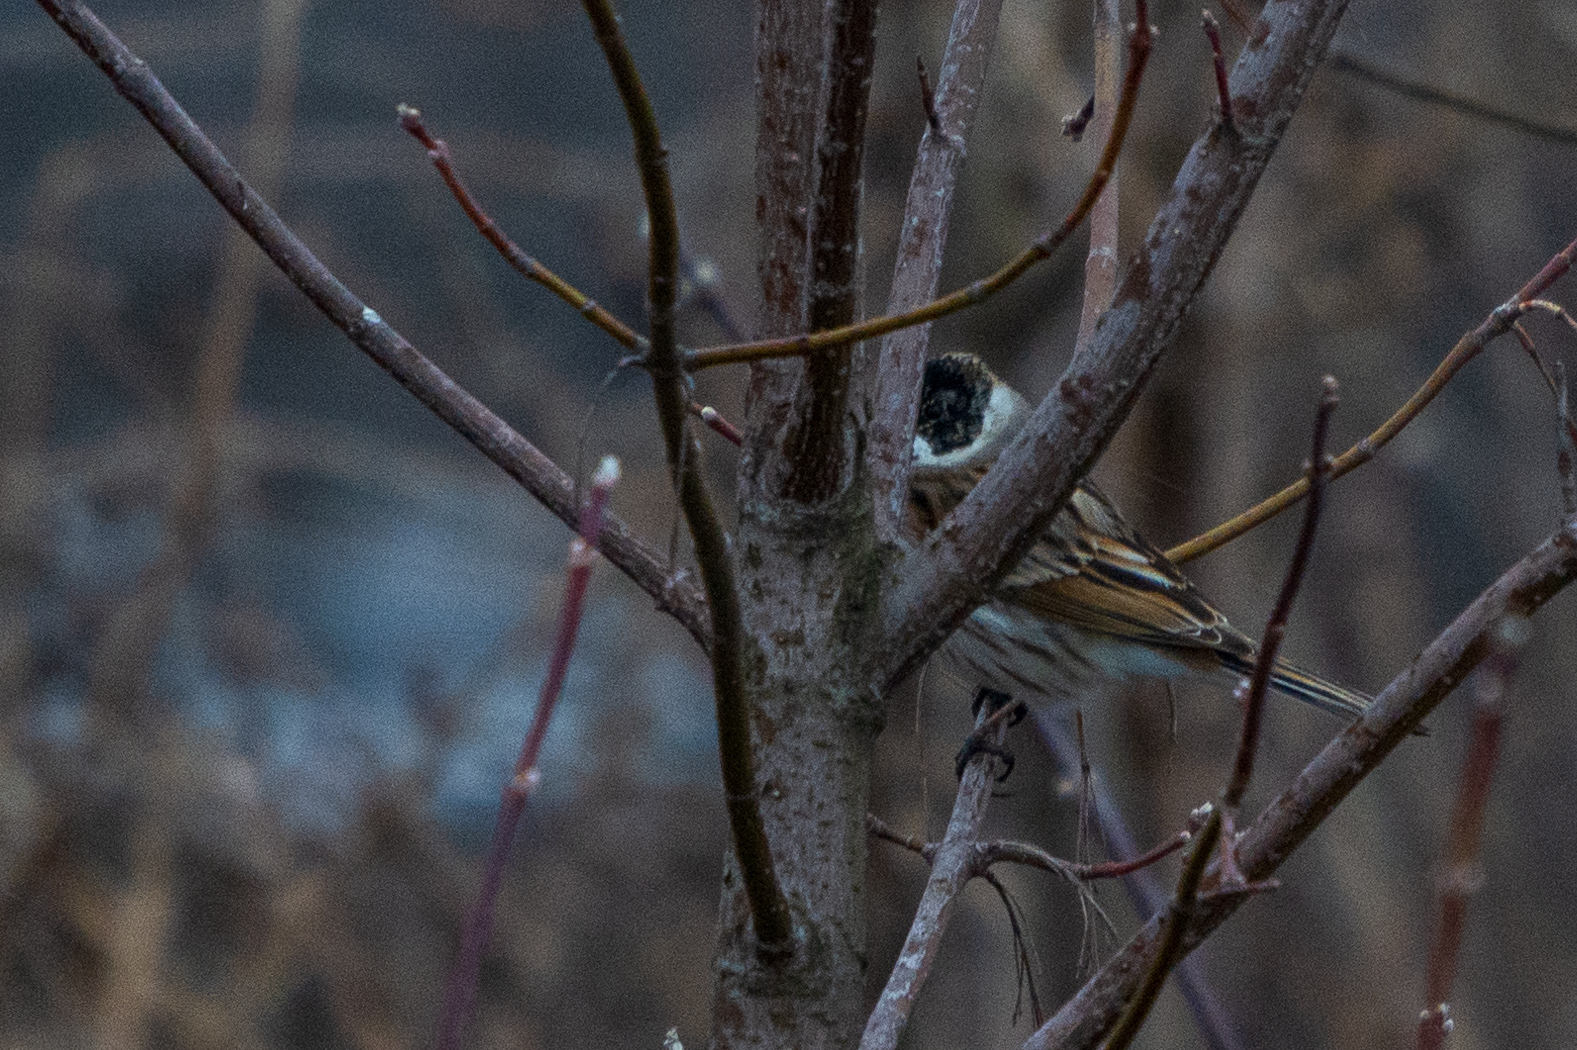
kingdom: Animalia
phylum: Chordata
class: Aves
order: Passeriformes
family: Emberizidae
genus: Emberiza
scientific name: Emberiza schoeniclus
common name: Reed bunting
